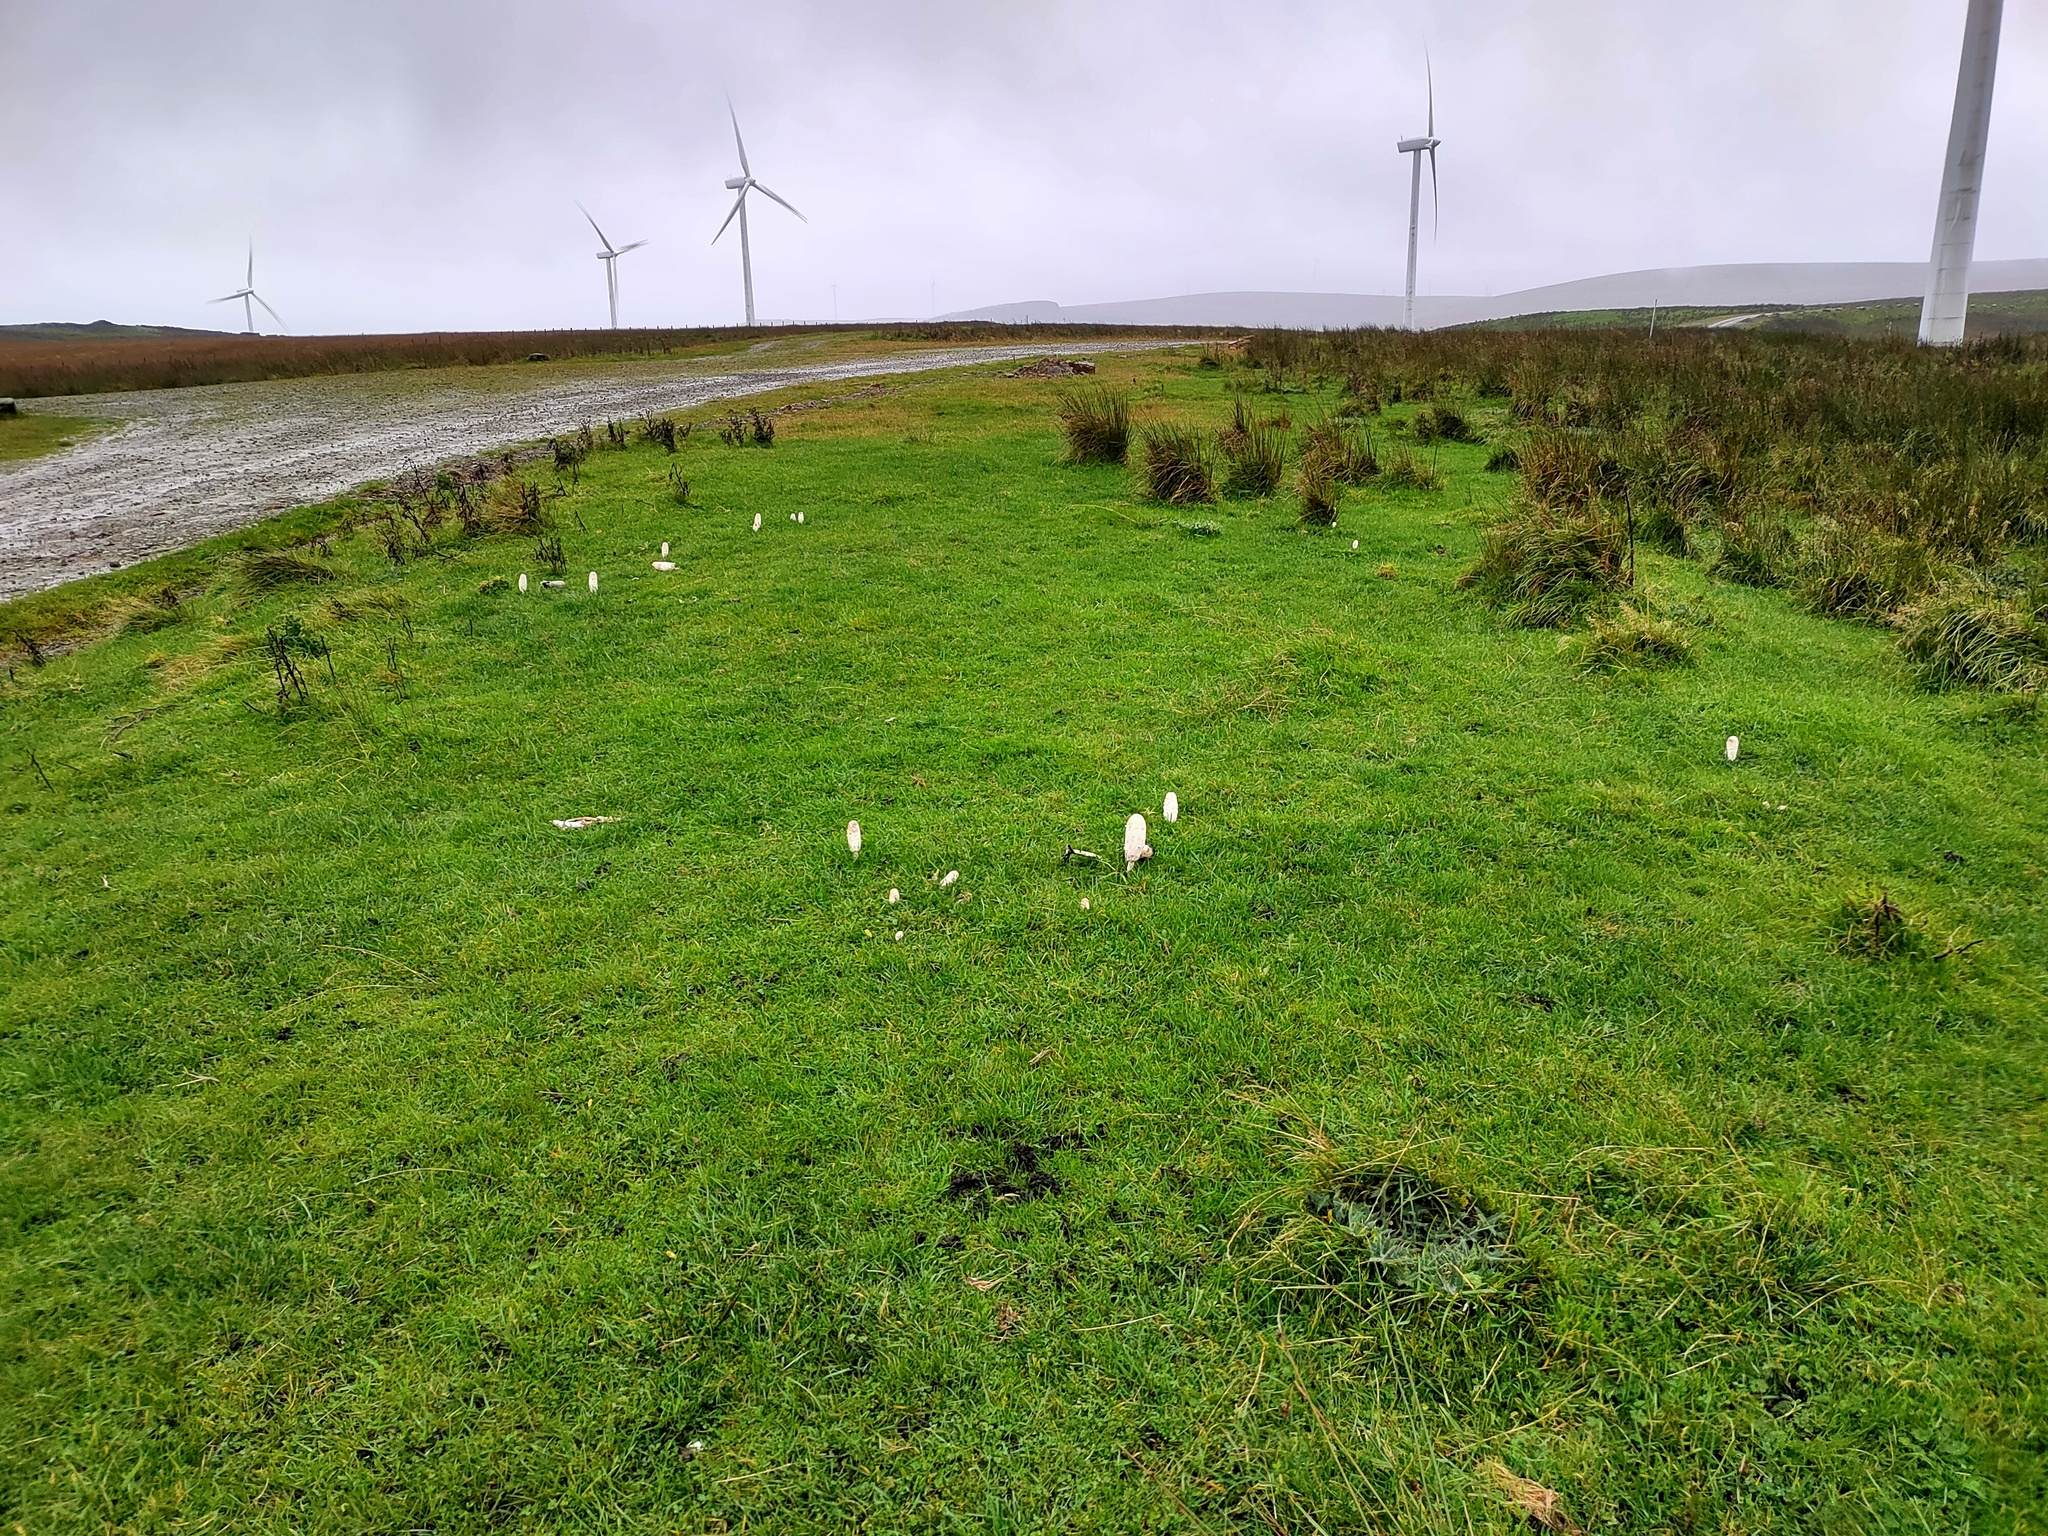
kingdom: Fungi
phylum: Basidiomycota
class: Agaricomycetes
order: Agaricales
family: Agaricaceae
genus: Coprinus
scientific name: Coprinus comatus
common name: Lawyer's wig
